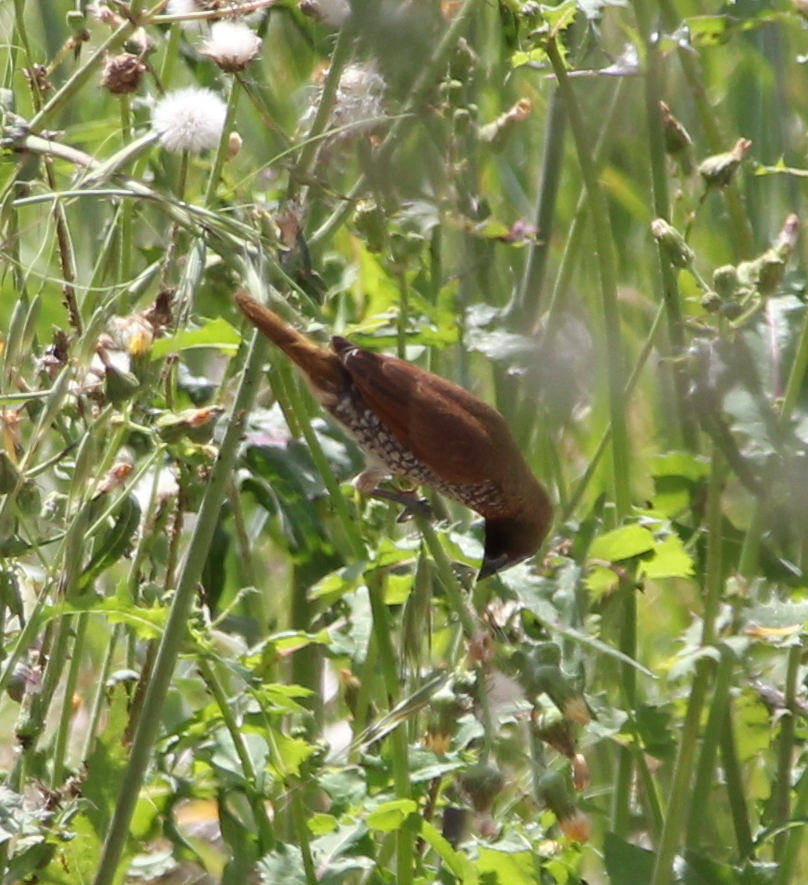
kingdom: Animalia
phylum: Chordata
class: Aves
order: Passeriformes
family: Estrildidae
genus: Lonchura
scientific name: Lonchura punctulata
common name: Scaly-breasted munia
